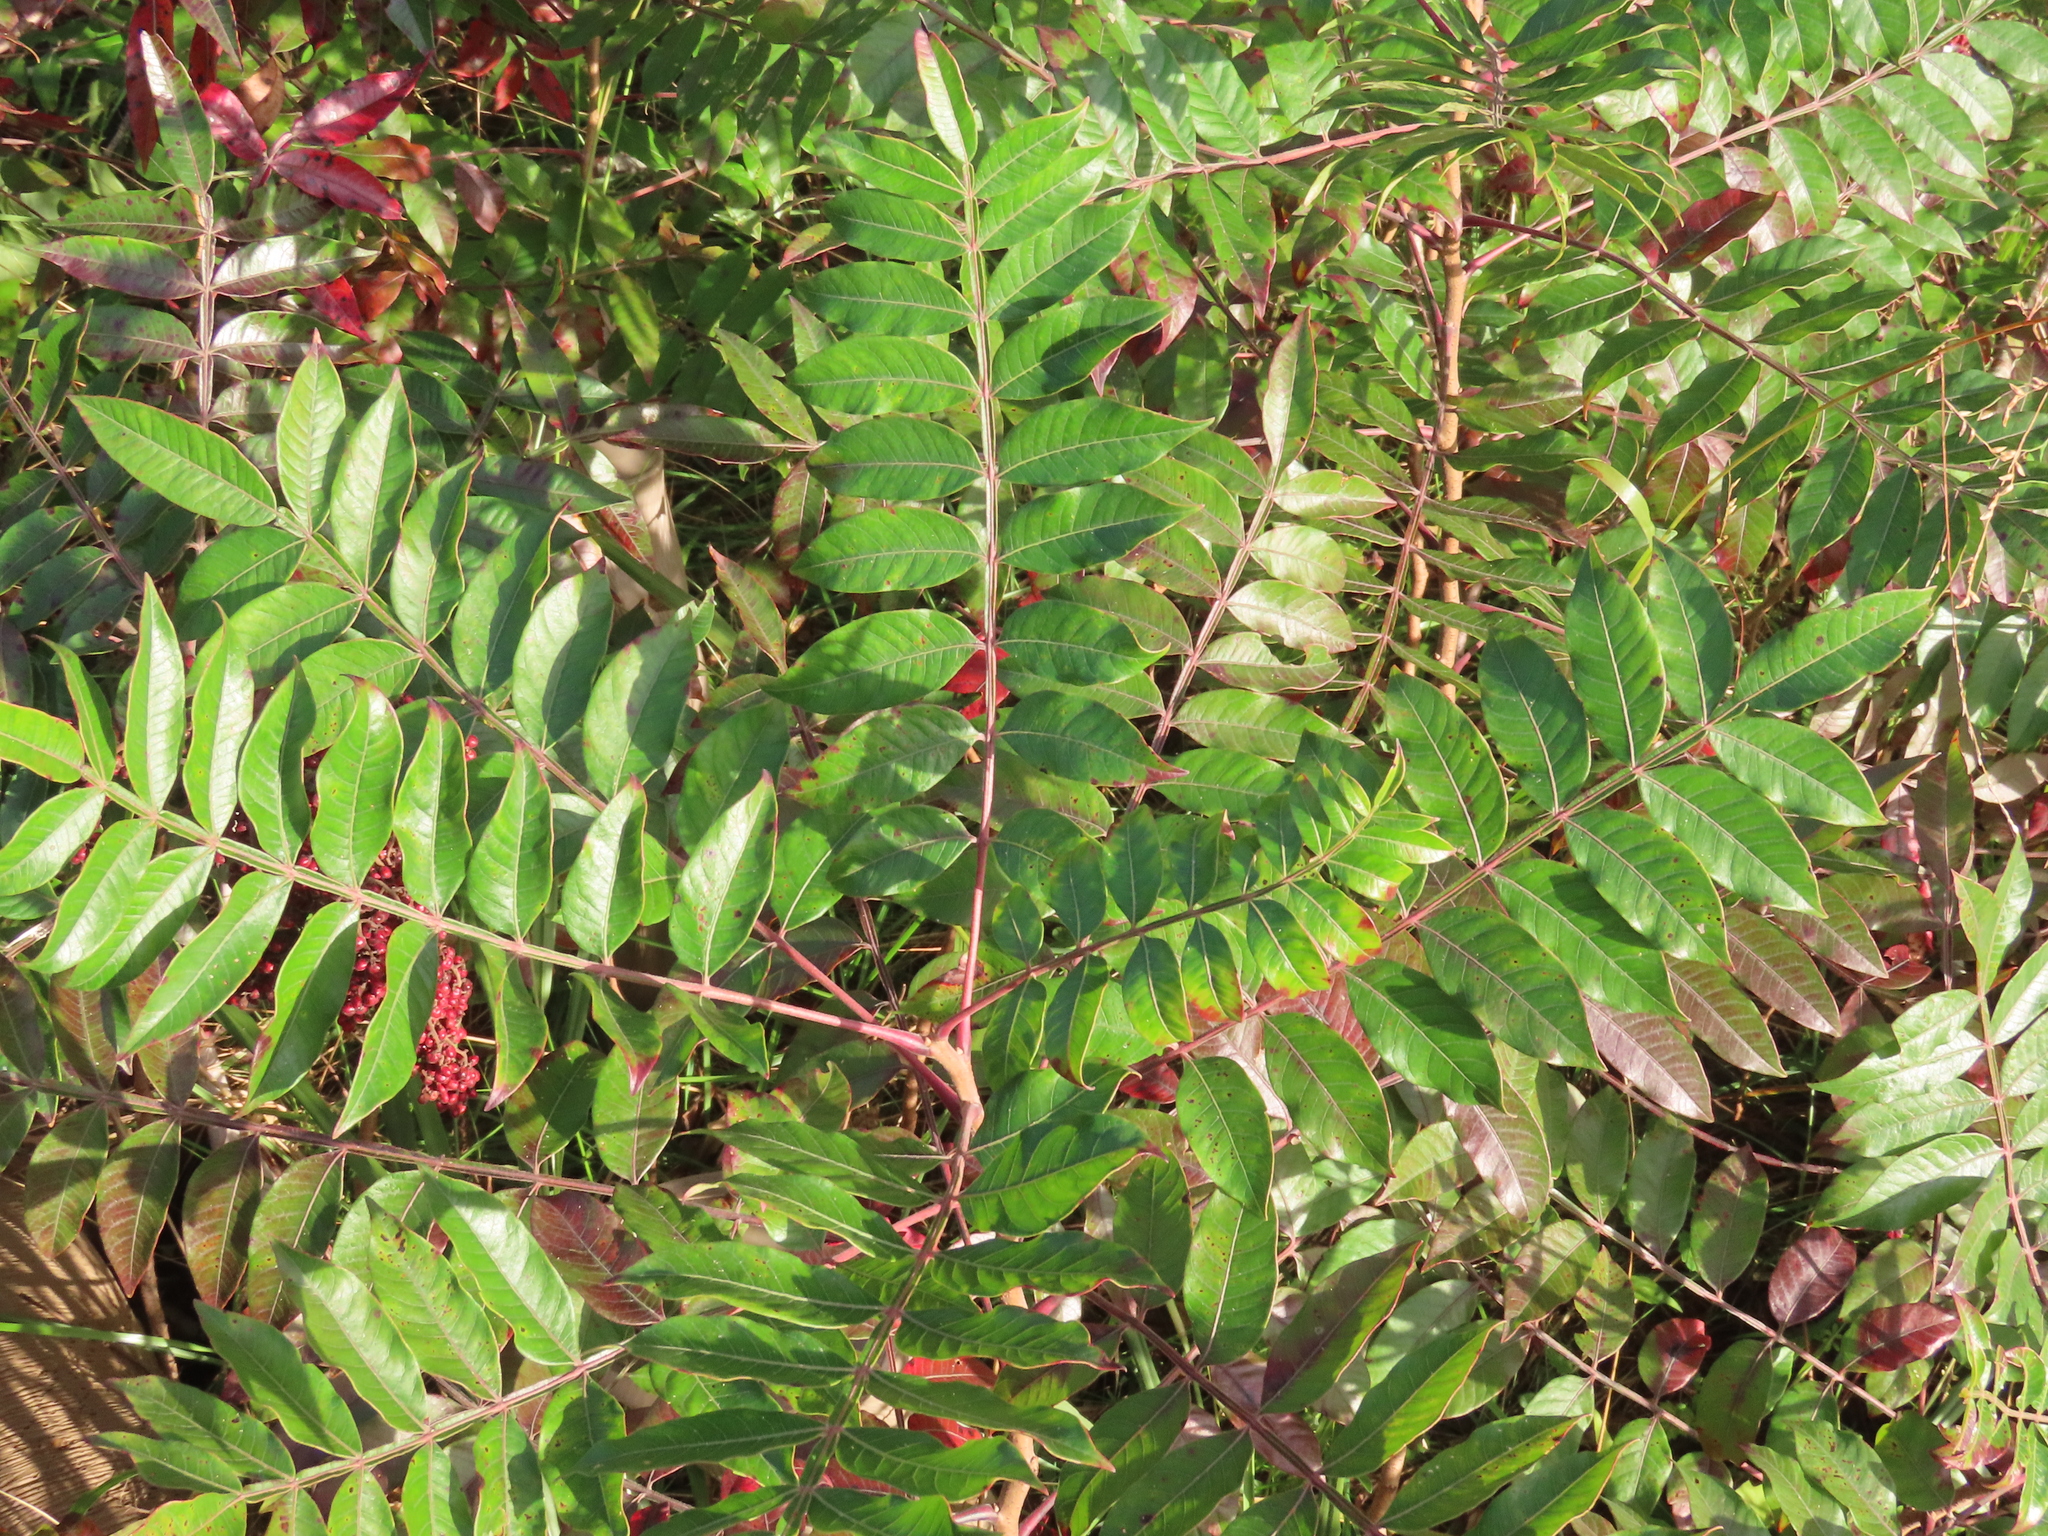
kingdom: Plantae
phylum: Tracheophyta
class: Magnoliopsida
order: Sapindales
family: Anacardiaceae
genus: Rhus
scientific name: Rhus copallina
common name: Shining sumac
